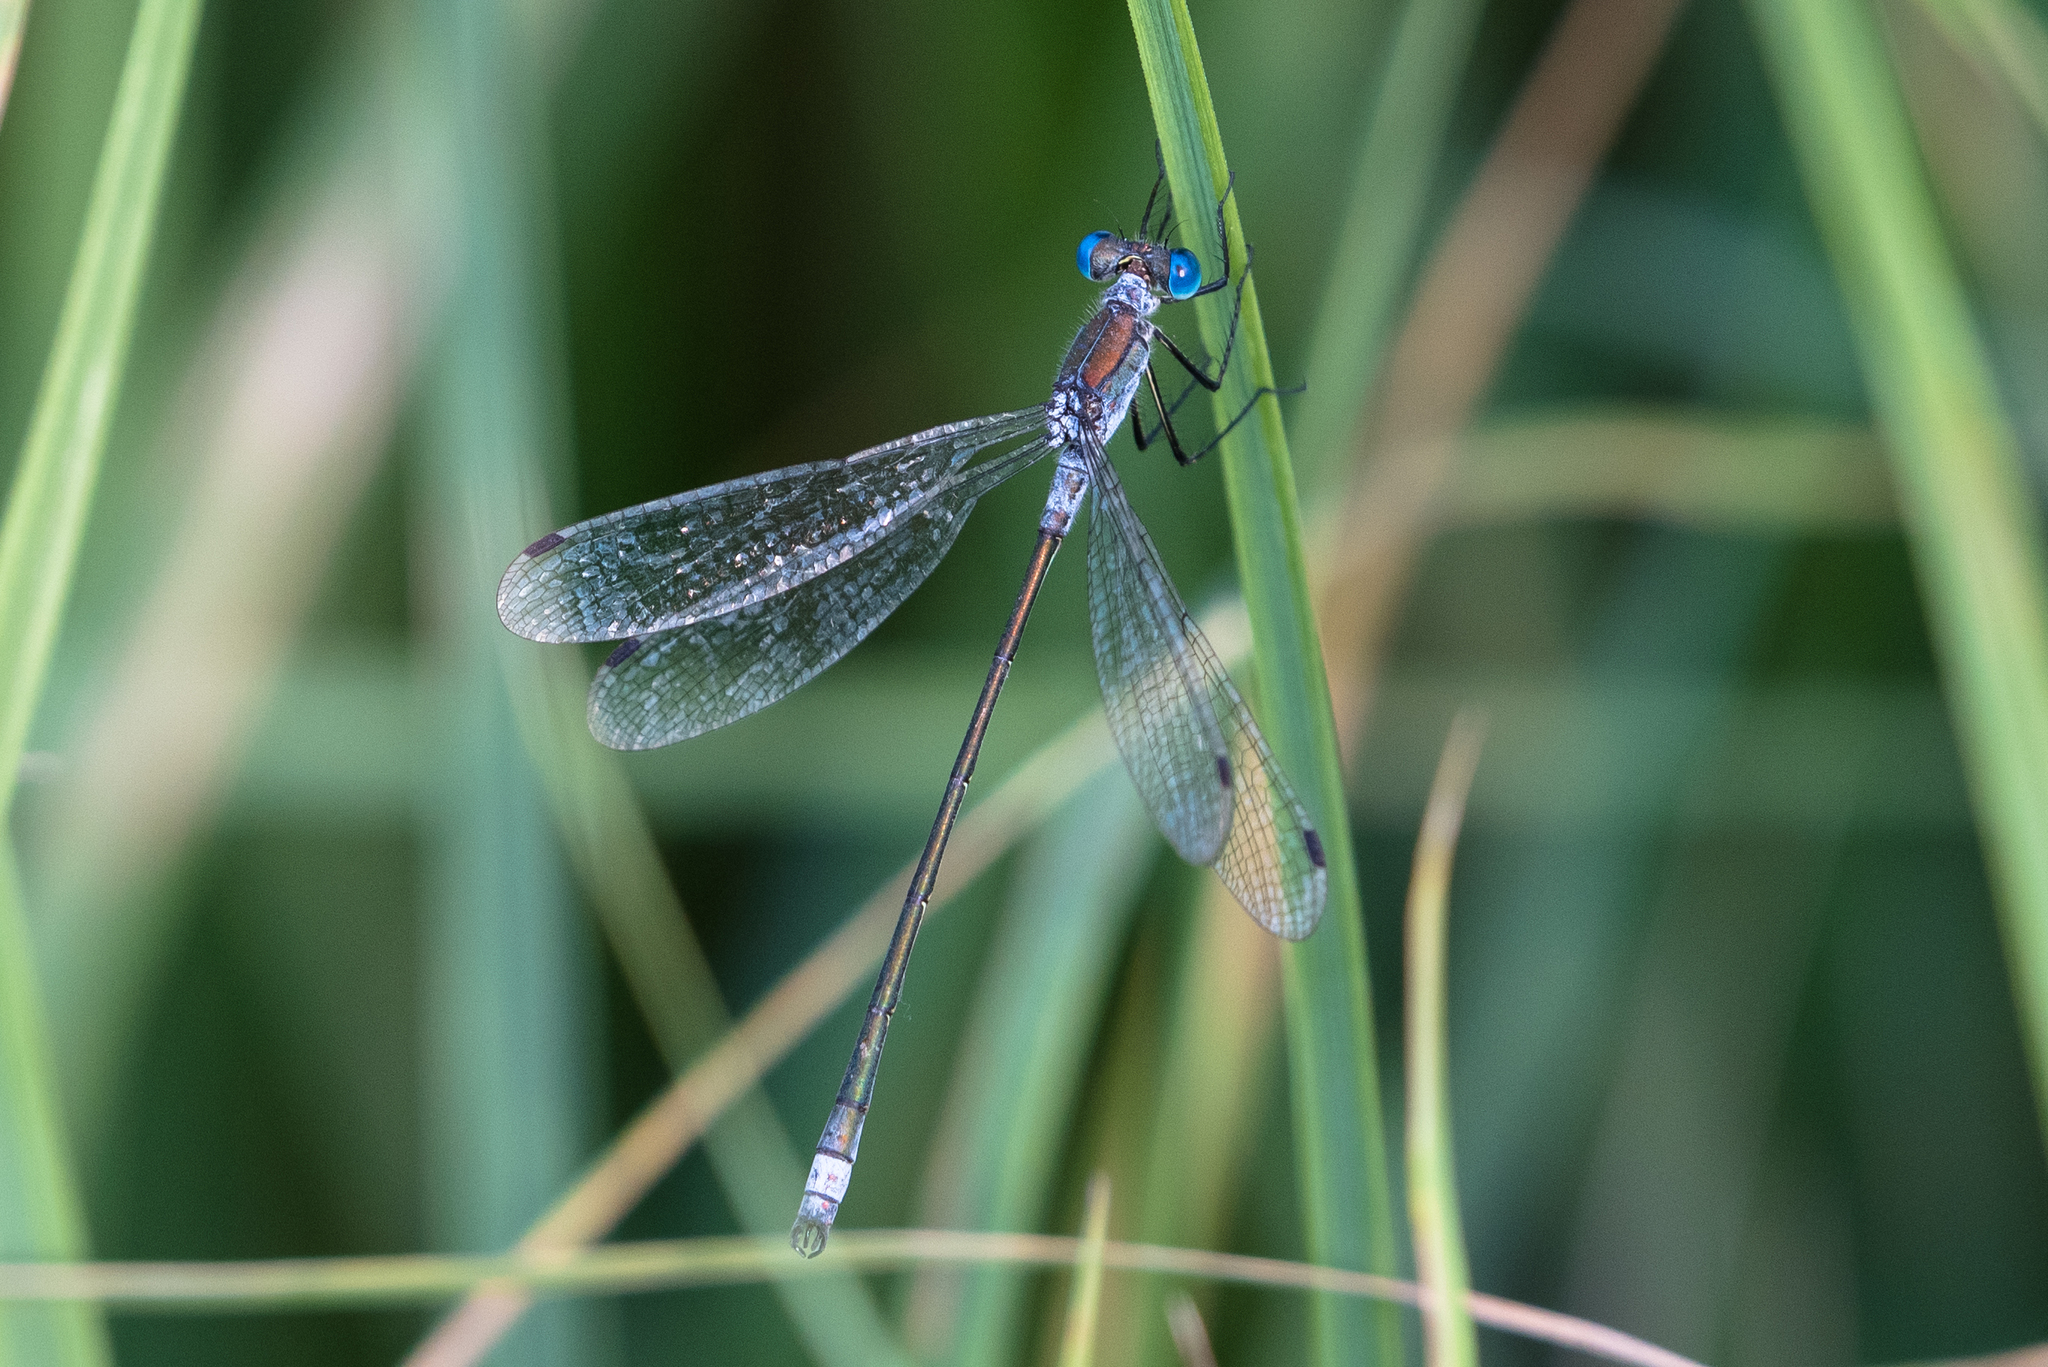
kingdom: Animalia
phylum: Arthropoda
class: Insecta
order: Odonata
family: Lestidae
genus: Lestes
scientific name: Lestes sponsa
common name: Common spreadwing
